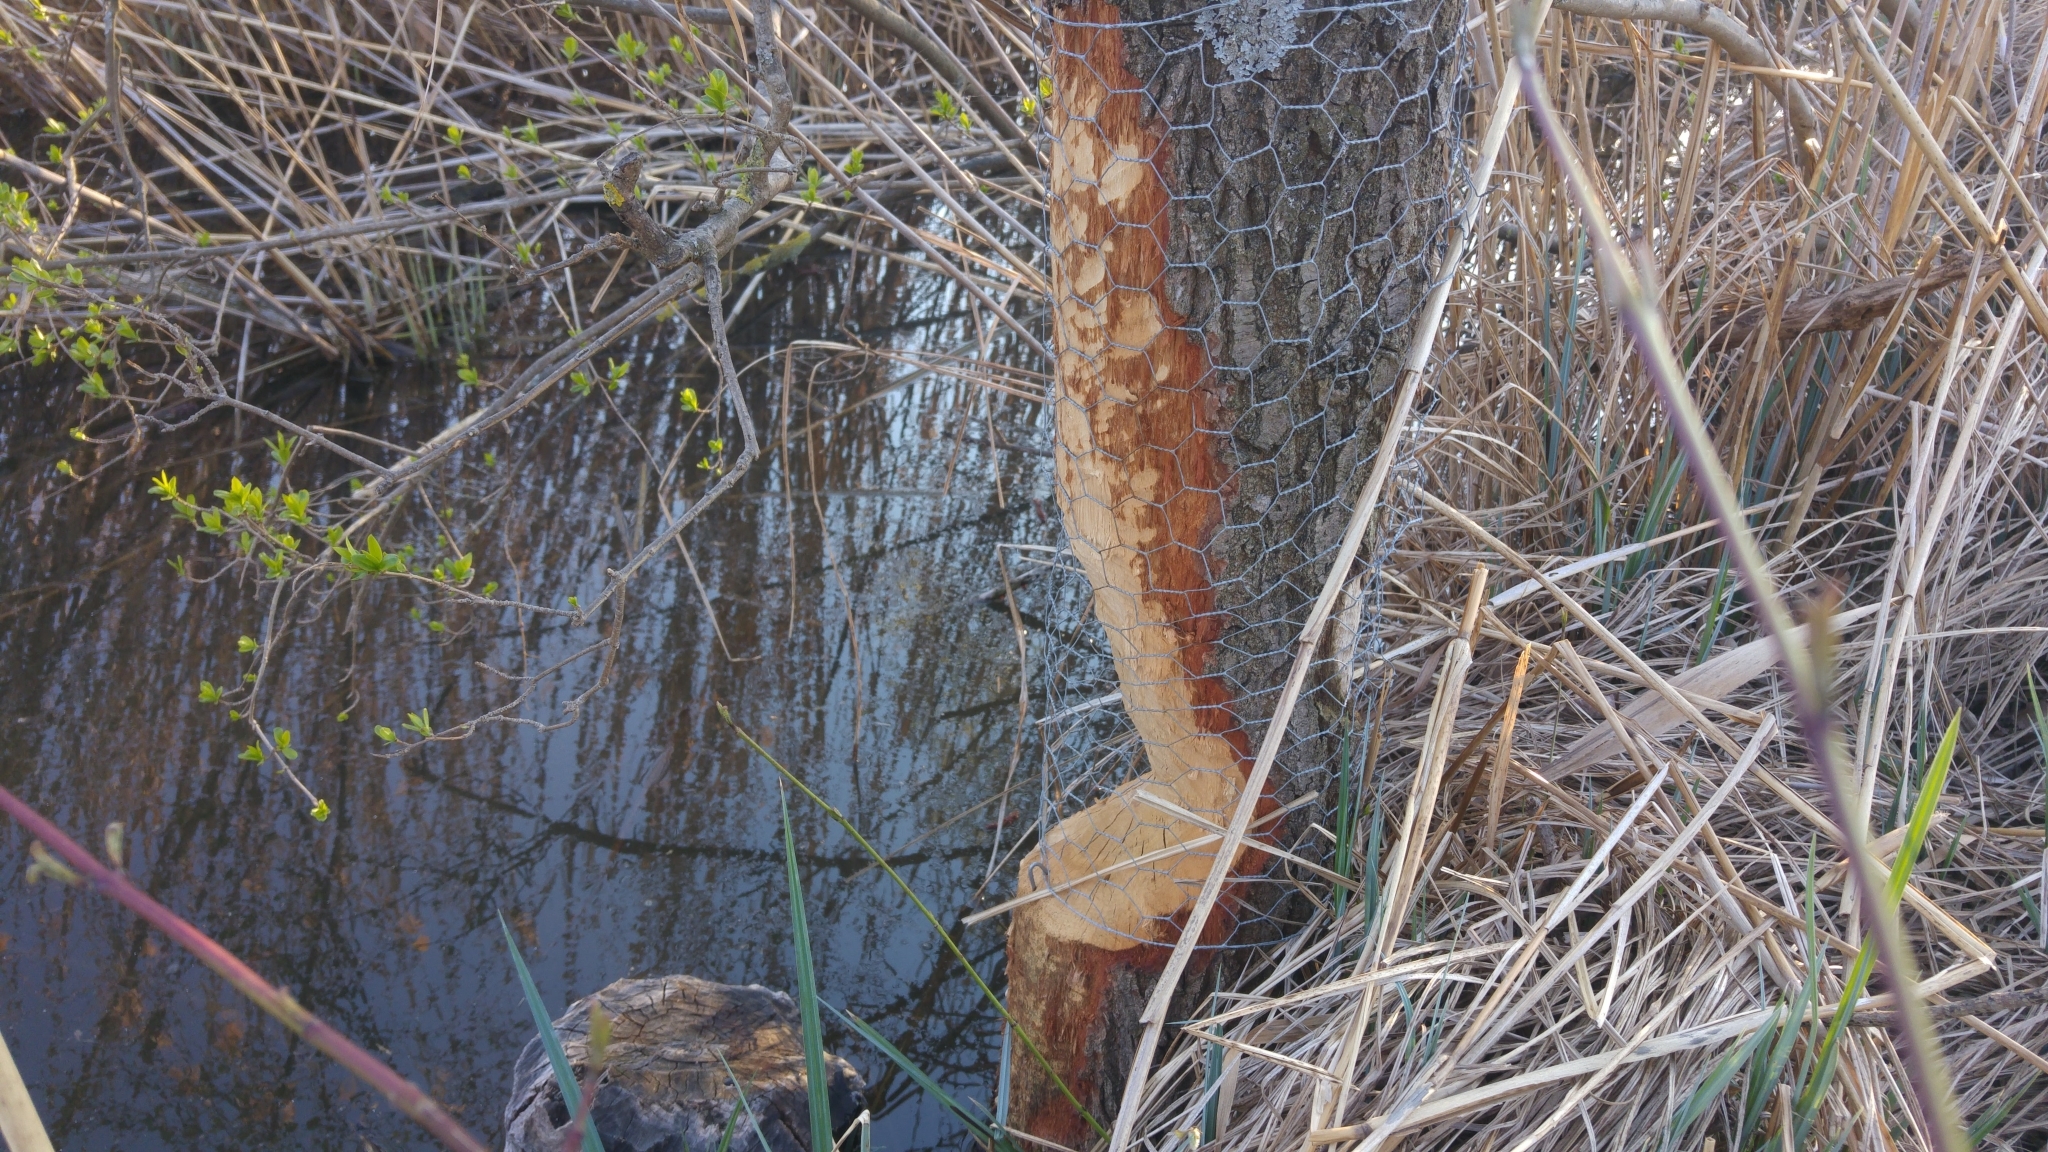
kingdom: Animalia
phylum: Chordata
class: Mammalia
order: Rodentia
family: Castoridae
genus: Castor
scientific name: Castor fiber
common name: Eurasian beaver
